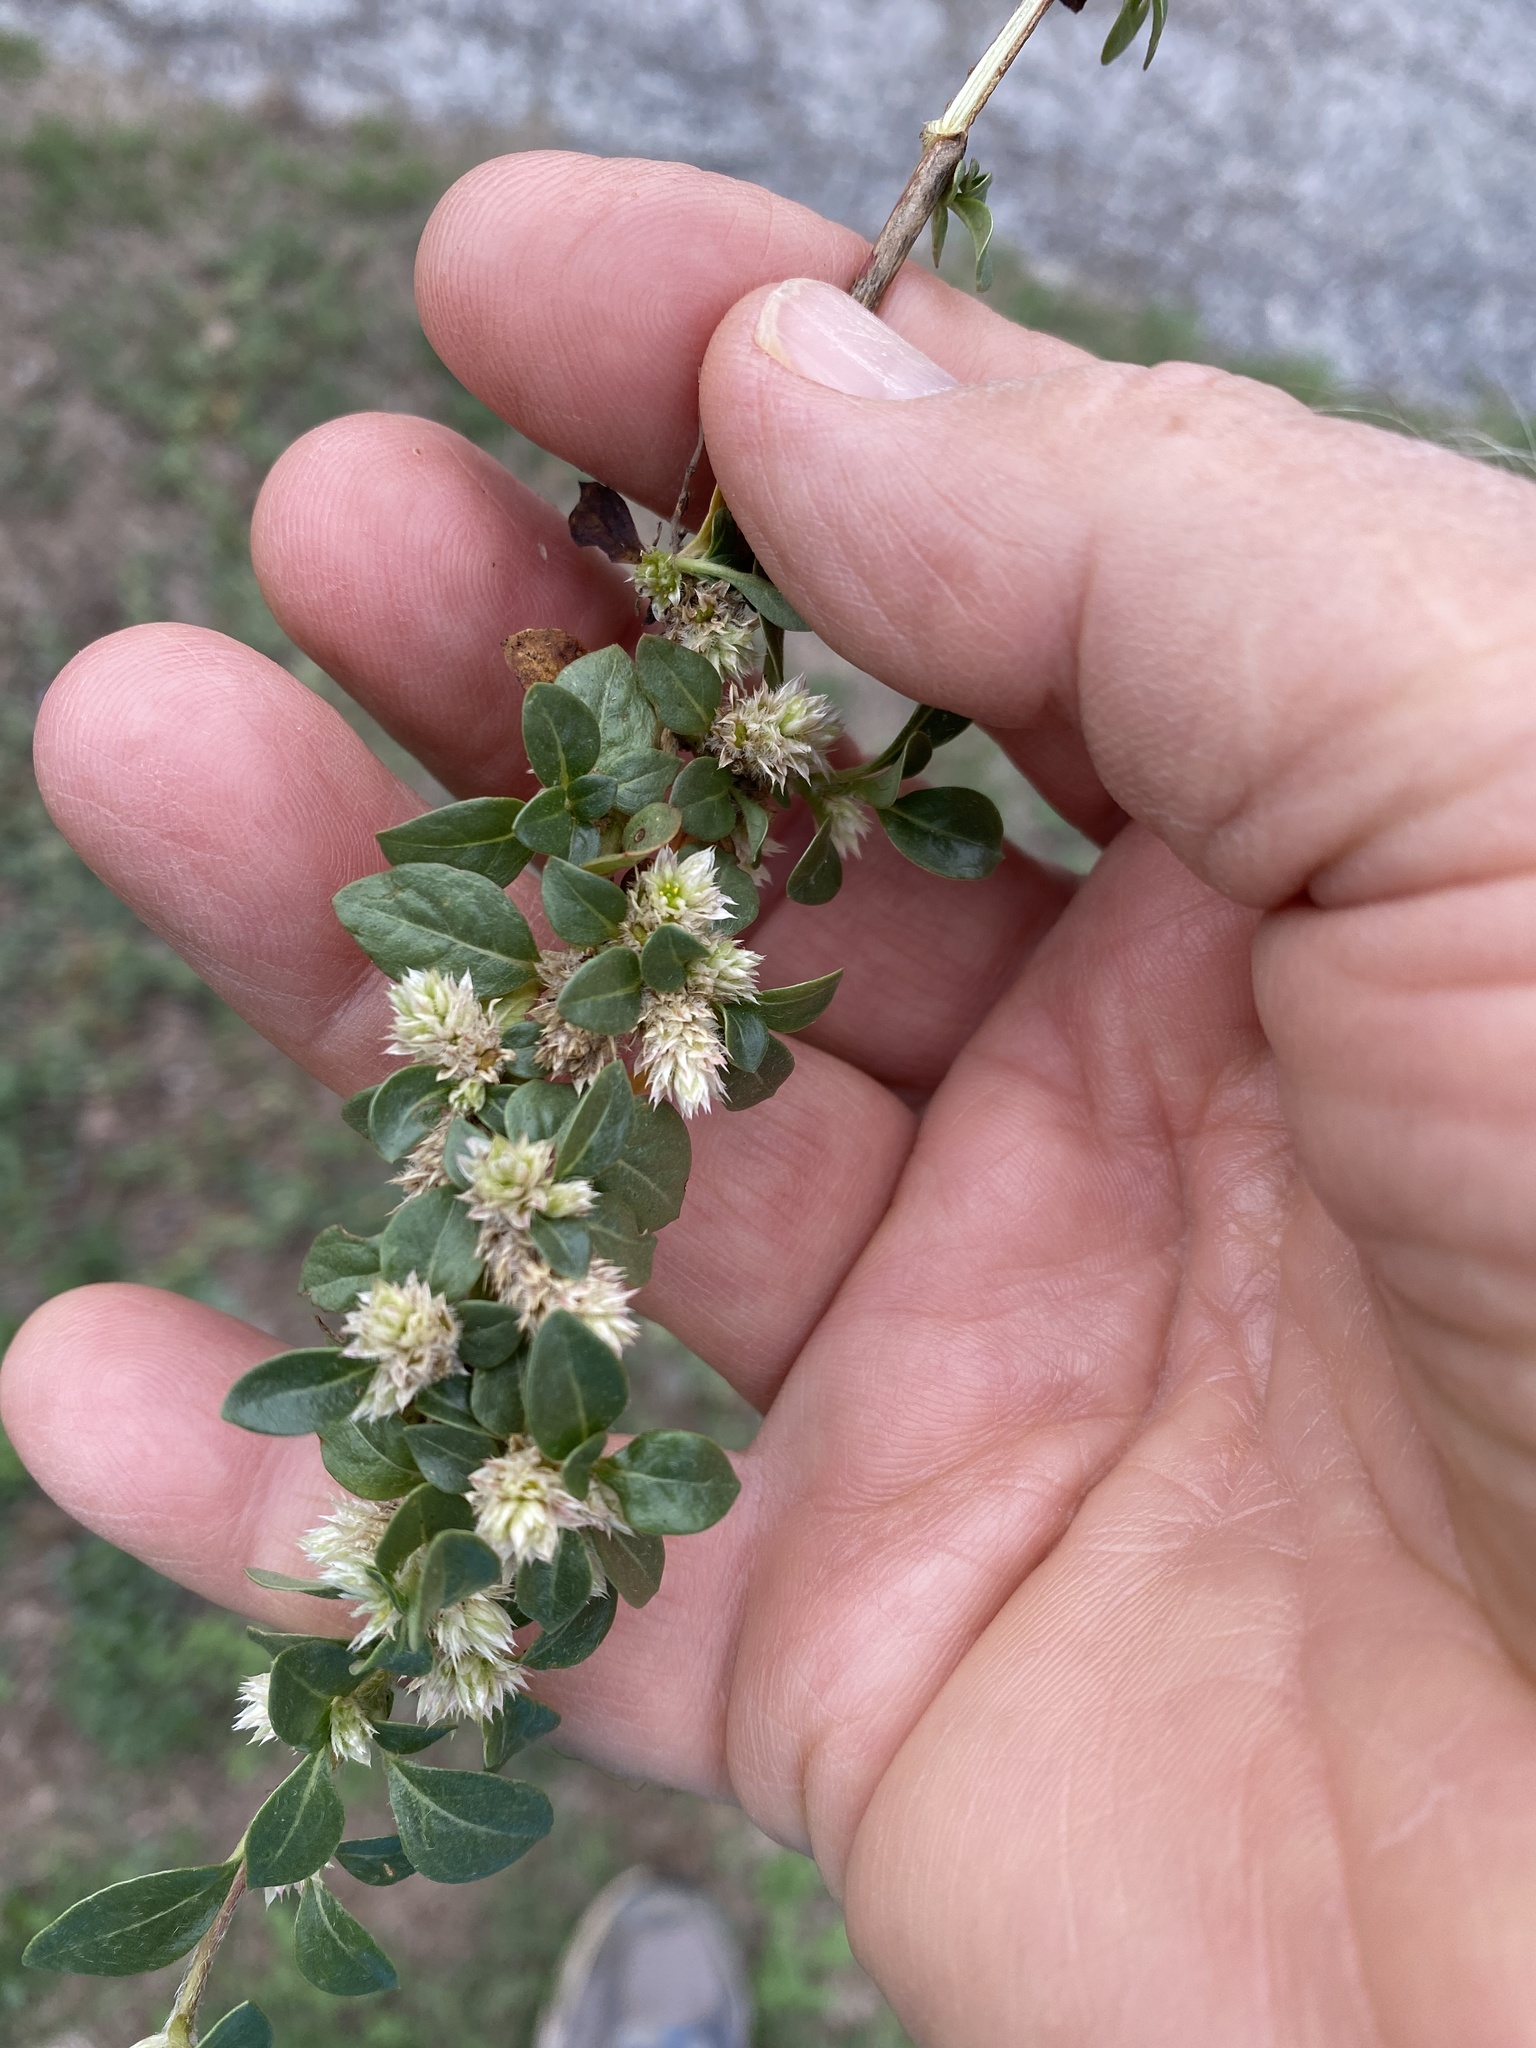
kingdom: Plantae
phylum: Tracheophyta
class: Magnoliopsida
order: Caryophyllales
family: Amaranthaceae
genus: Alternanthera
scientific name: Alternanthera caracasana
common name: Washerwoman
